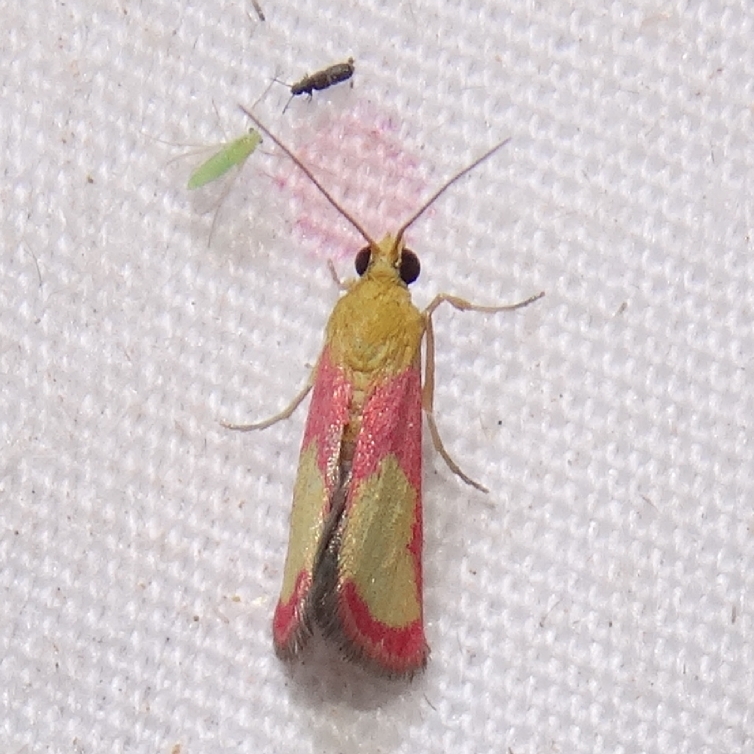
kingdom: Animalia
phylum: Arthropoda
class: Insecta
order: Lepidoptera
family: Crambidae
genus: Mojavia
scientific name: Mojavia achemonalis
